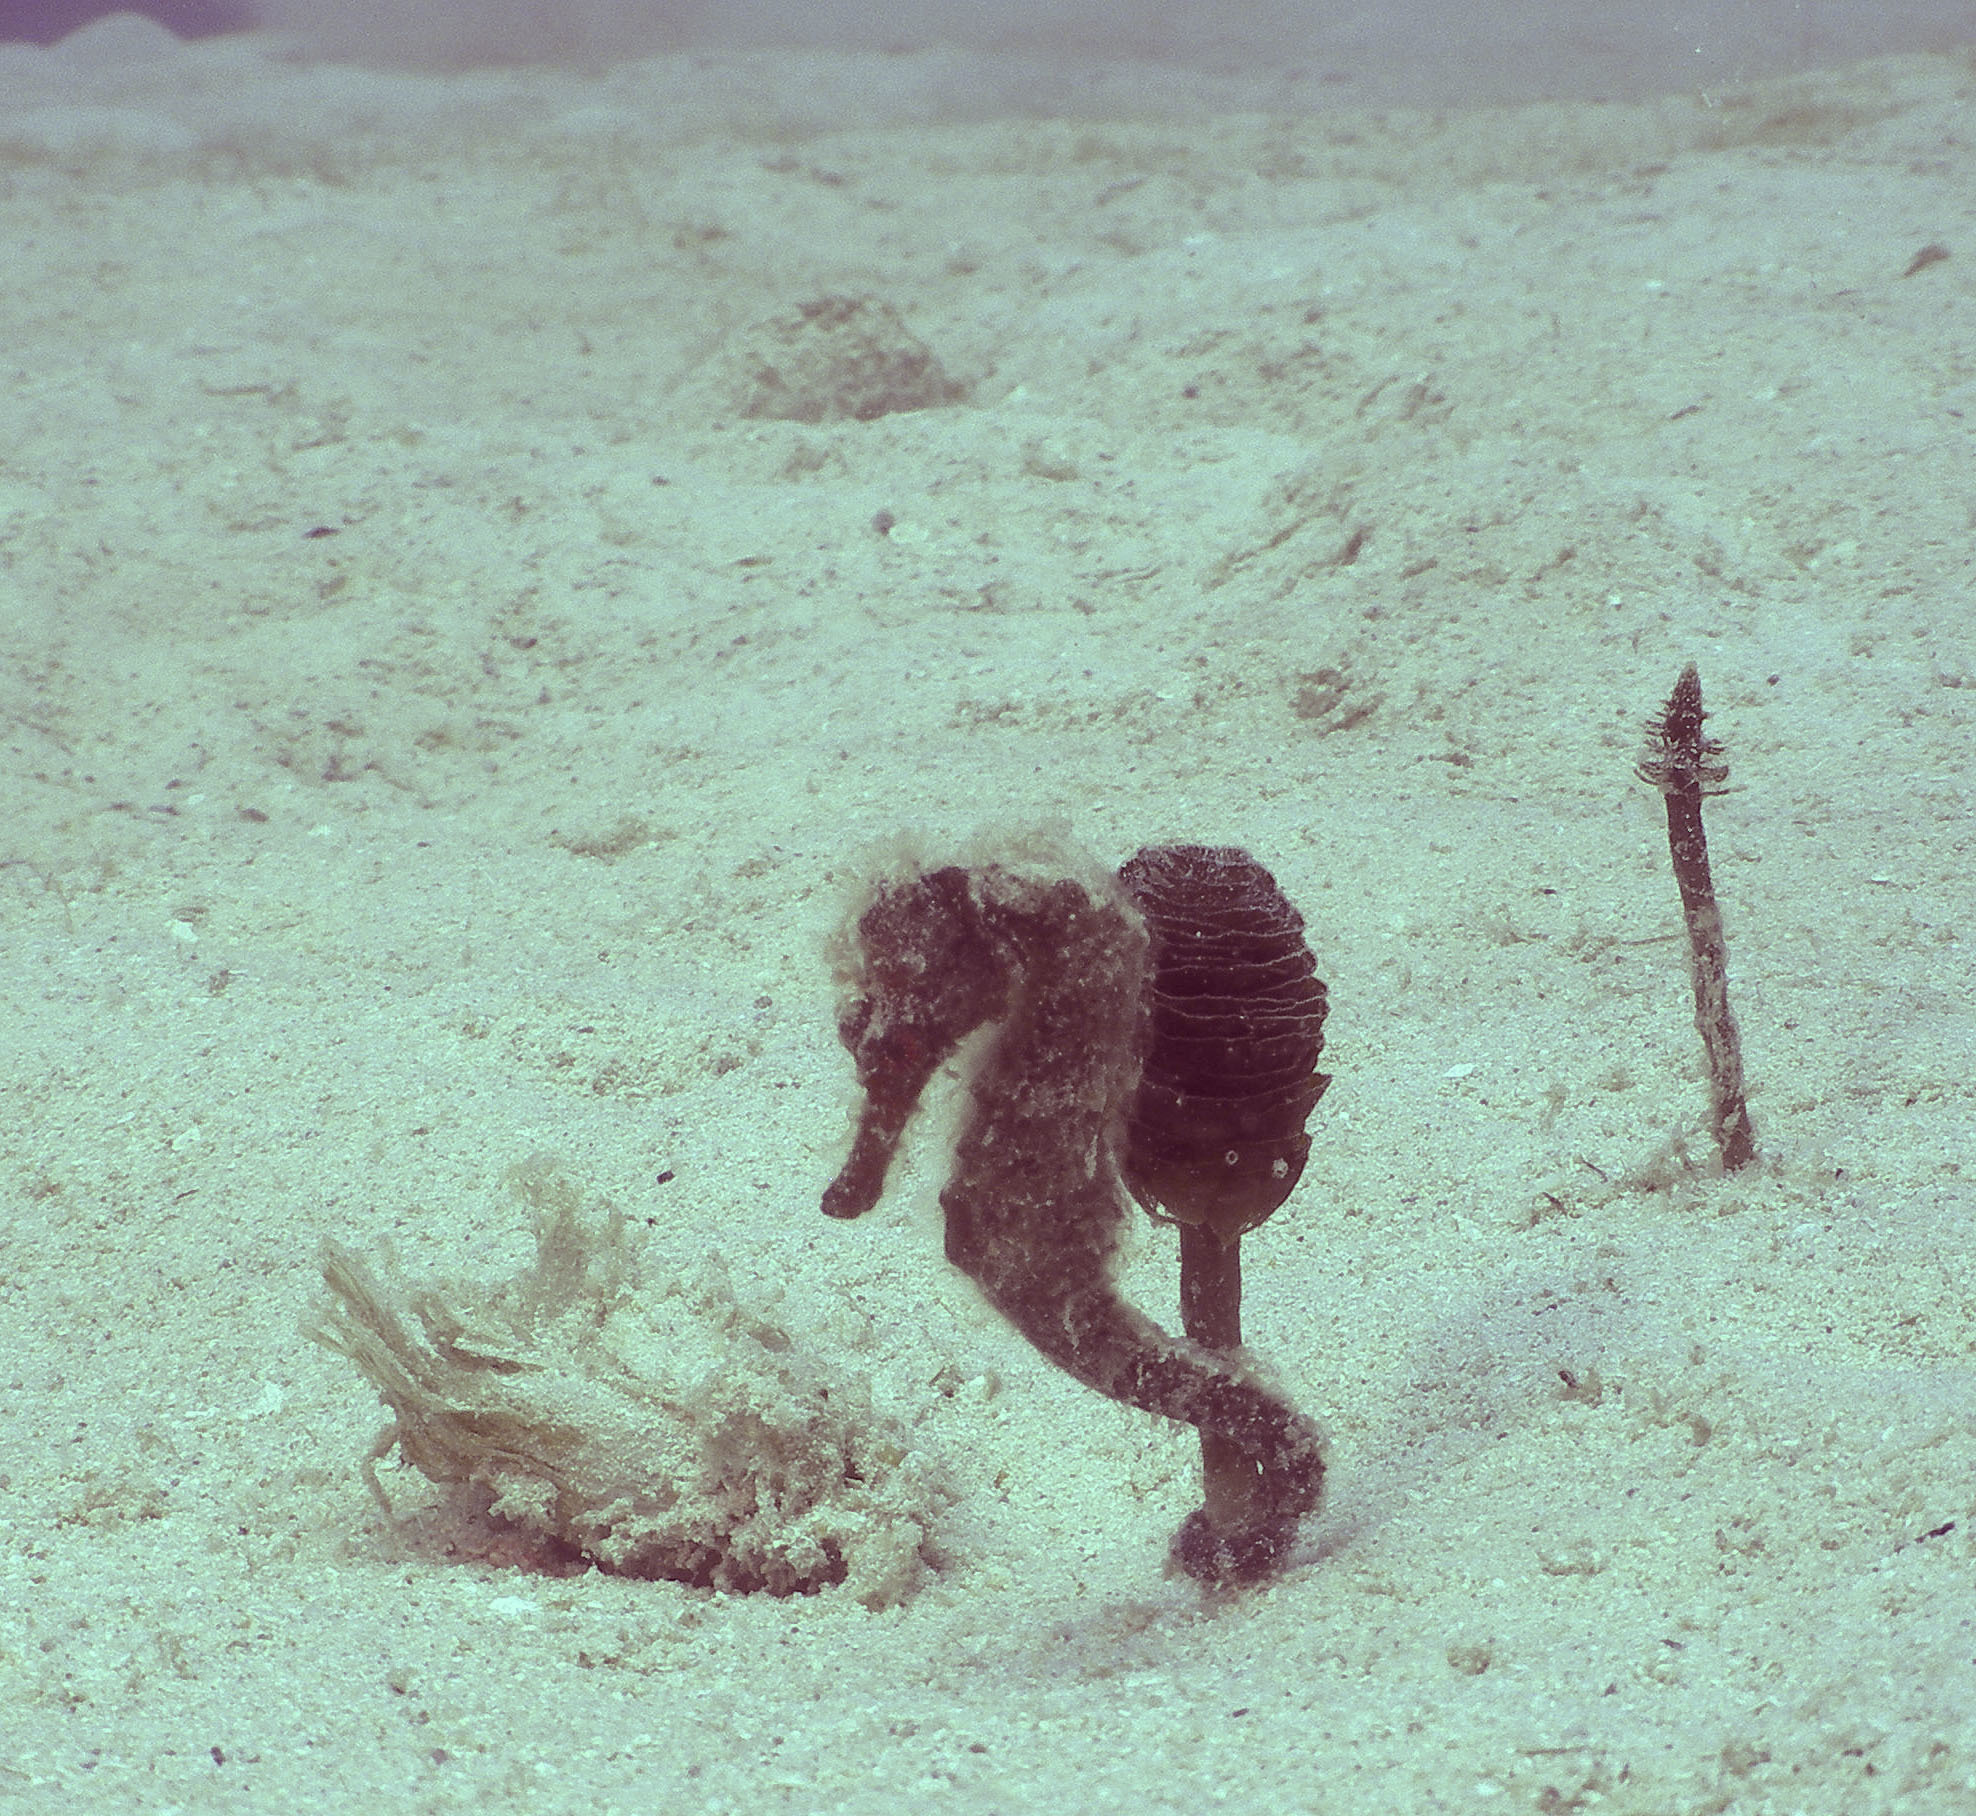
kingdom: Animalia
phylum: Chordata
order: Syngnathiformes
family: Syngnathidae
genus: Hippocampus
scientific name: Hippocampus reidi
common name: Slender seahorse
